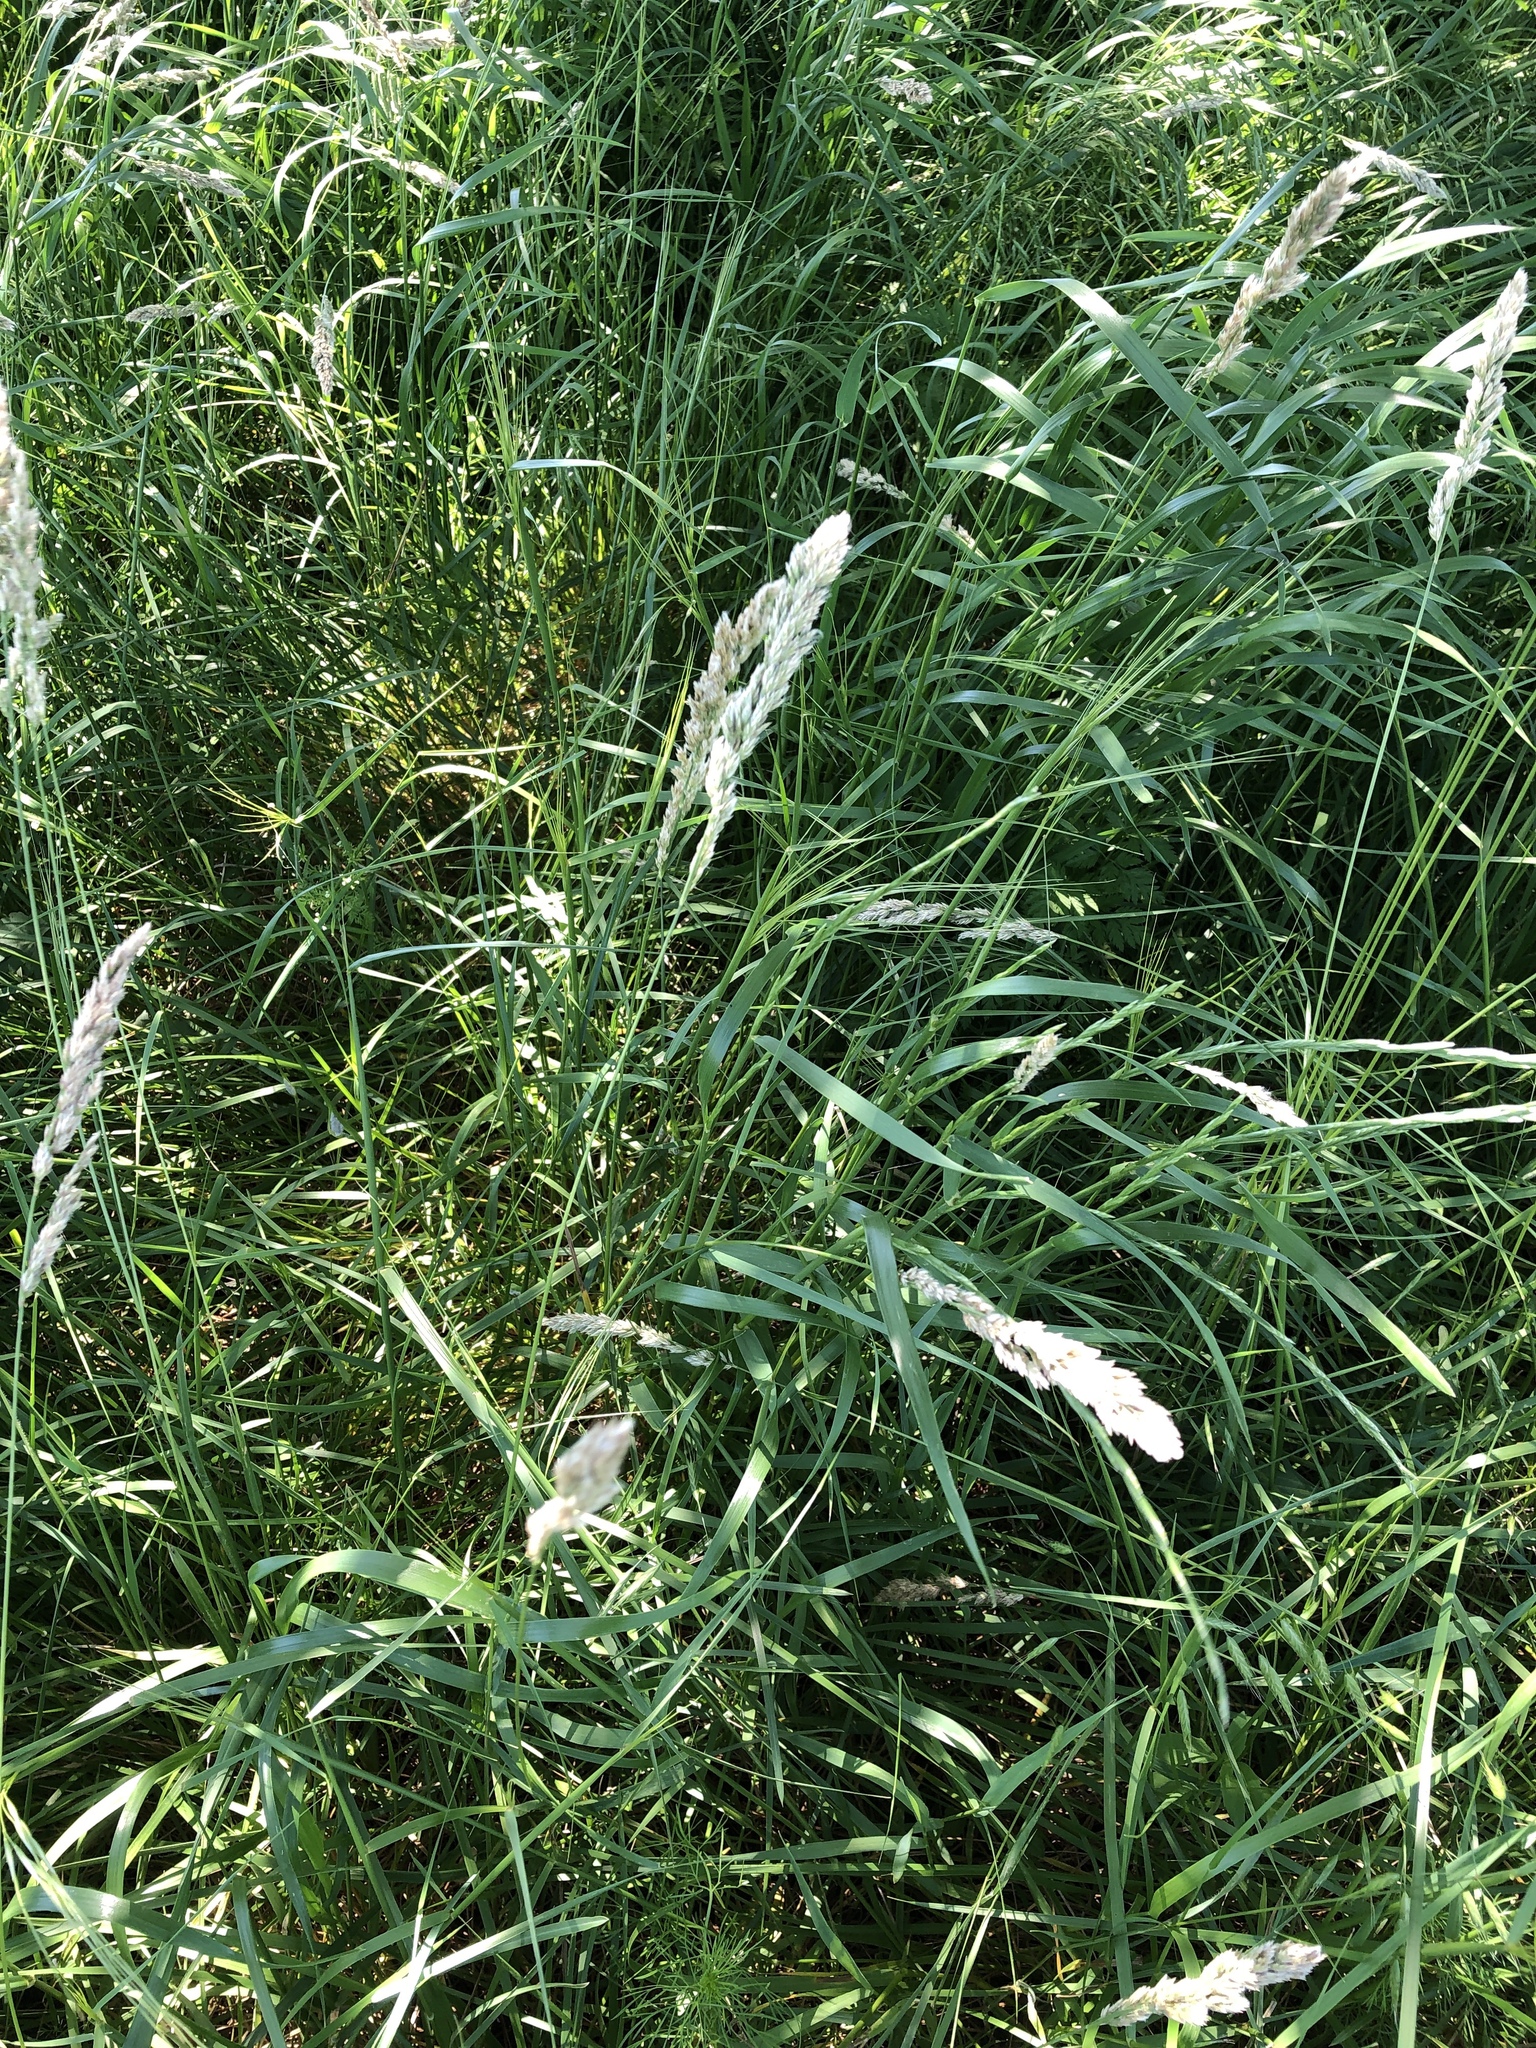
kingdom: Plantae
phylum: Tracheophyta
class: Liliopsida
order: Poales
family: Poaceae
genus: Poa
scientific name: Poa arachnifera
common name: Texas bluegrass
